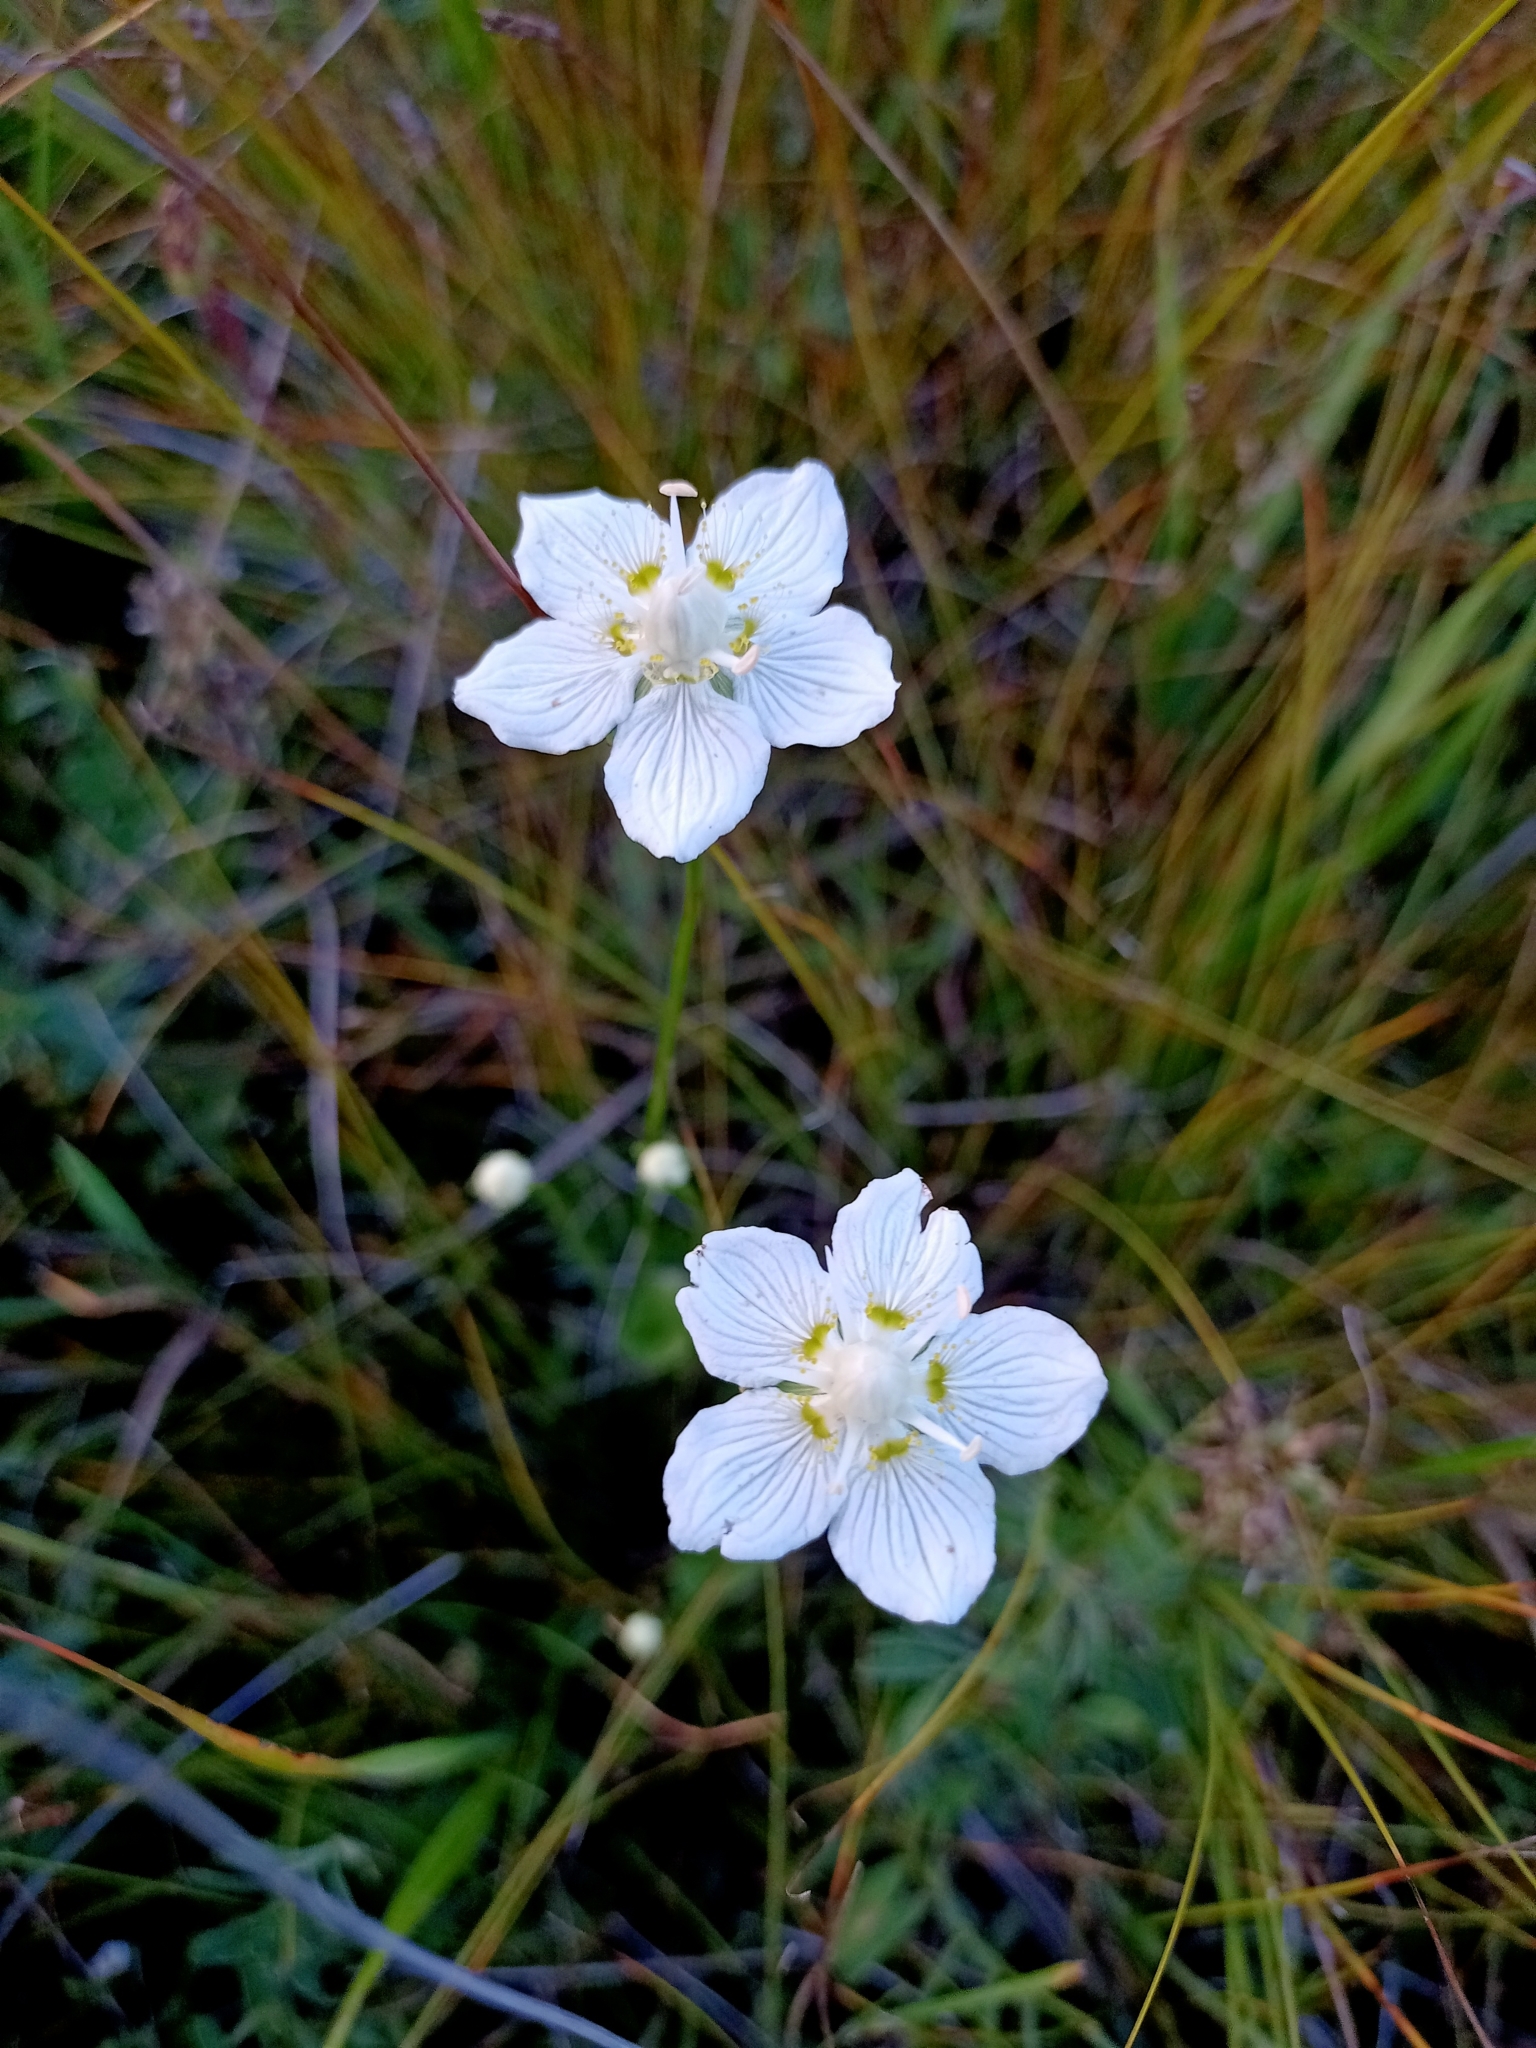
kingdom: Plantae
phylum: Tracheophyta
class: Magnoliopsida
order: Celastrales
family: Parnassiaceae
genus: Parnassia
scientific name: Parnassia palustris
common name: Grass-of-parnassus
